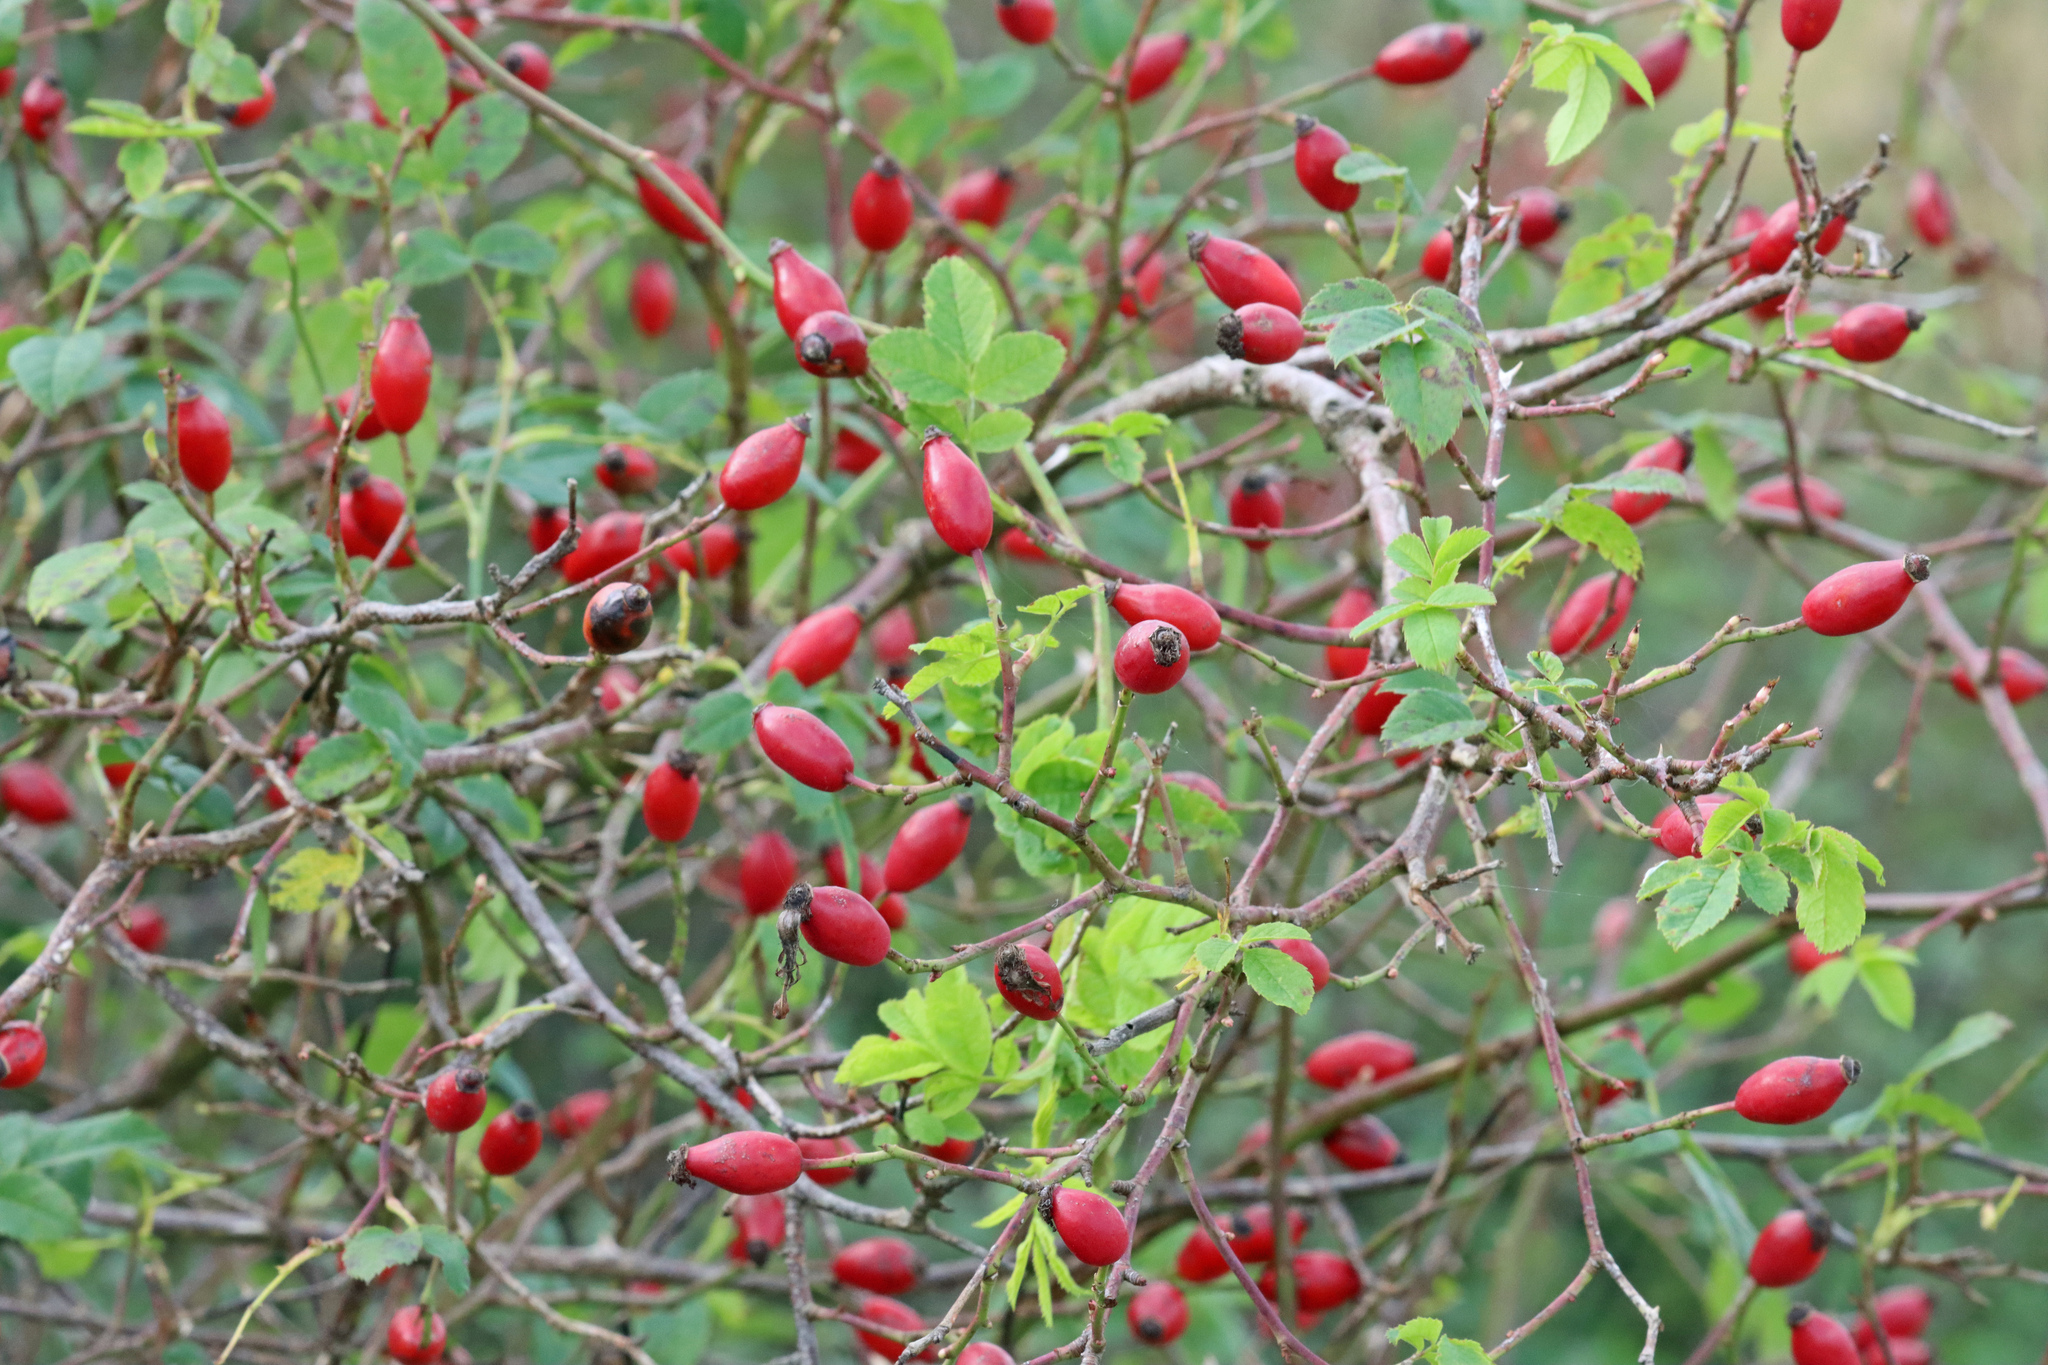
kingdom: Plantae
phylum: Tracheophyta
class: Magnoliopsida
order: Rosales
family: Rosaceae
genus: Rosa
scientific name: Rosa canina
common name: Dog rose
